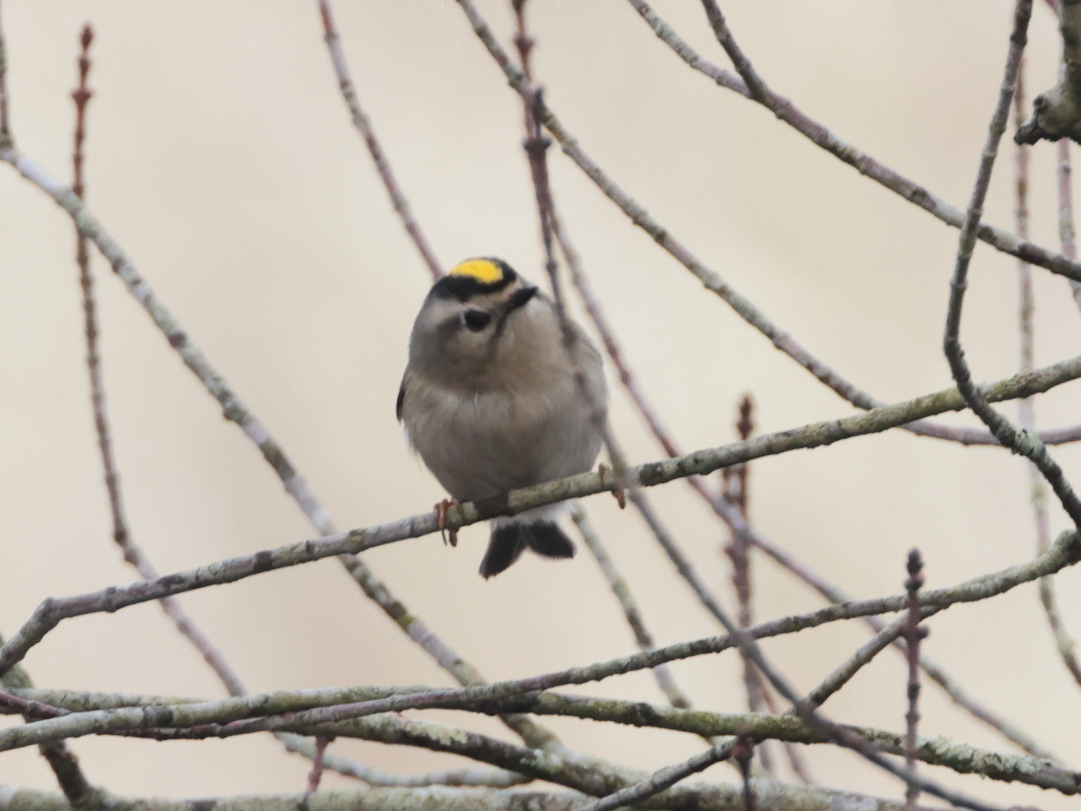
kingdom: Animalia
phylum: Chordata
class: Aves
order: Passeriformes
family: Regulidae
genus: Regulus
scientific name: Regulus satrapa
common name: Golden-crowned kinglet
